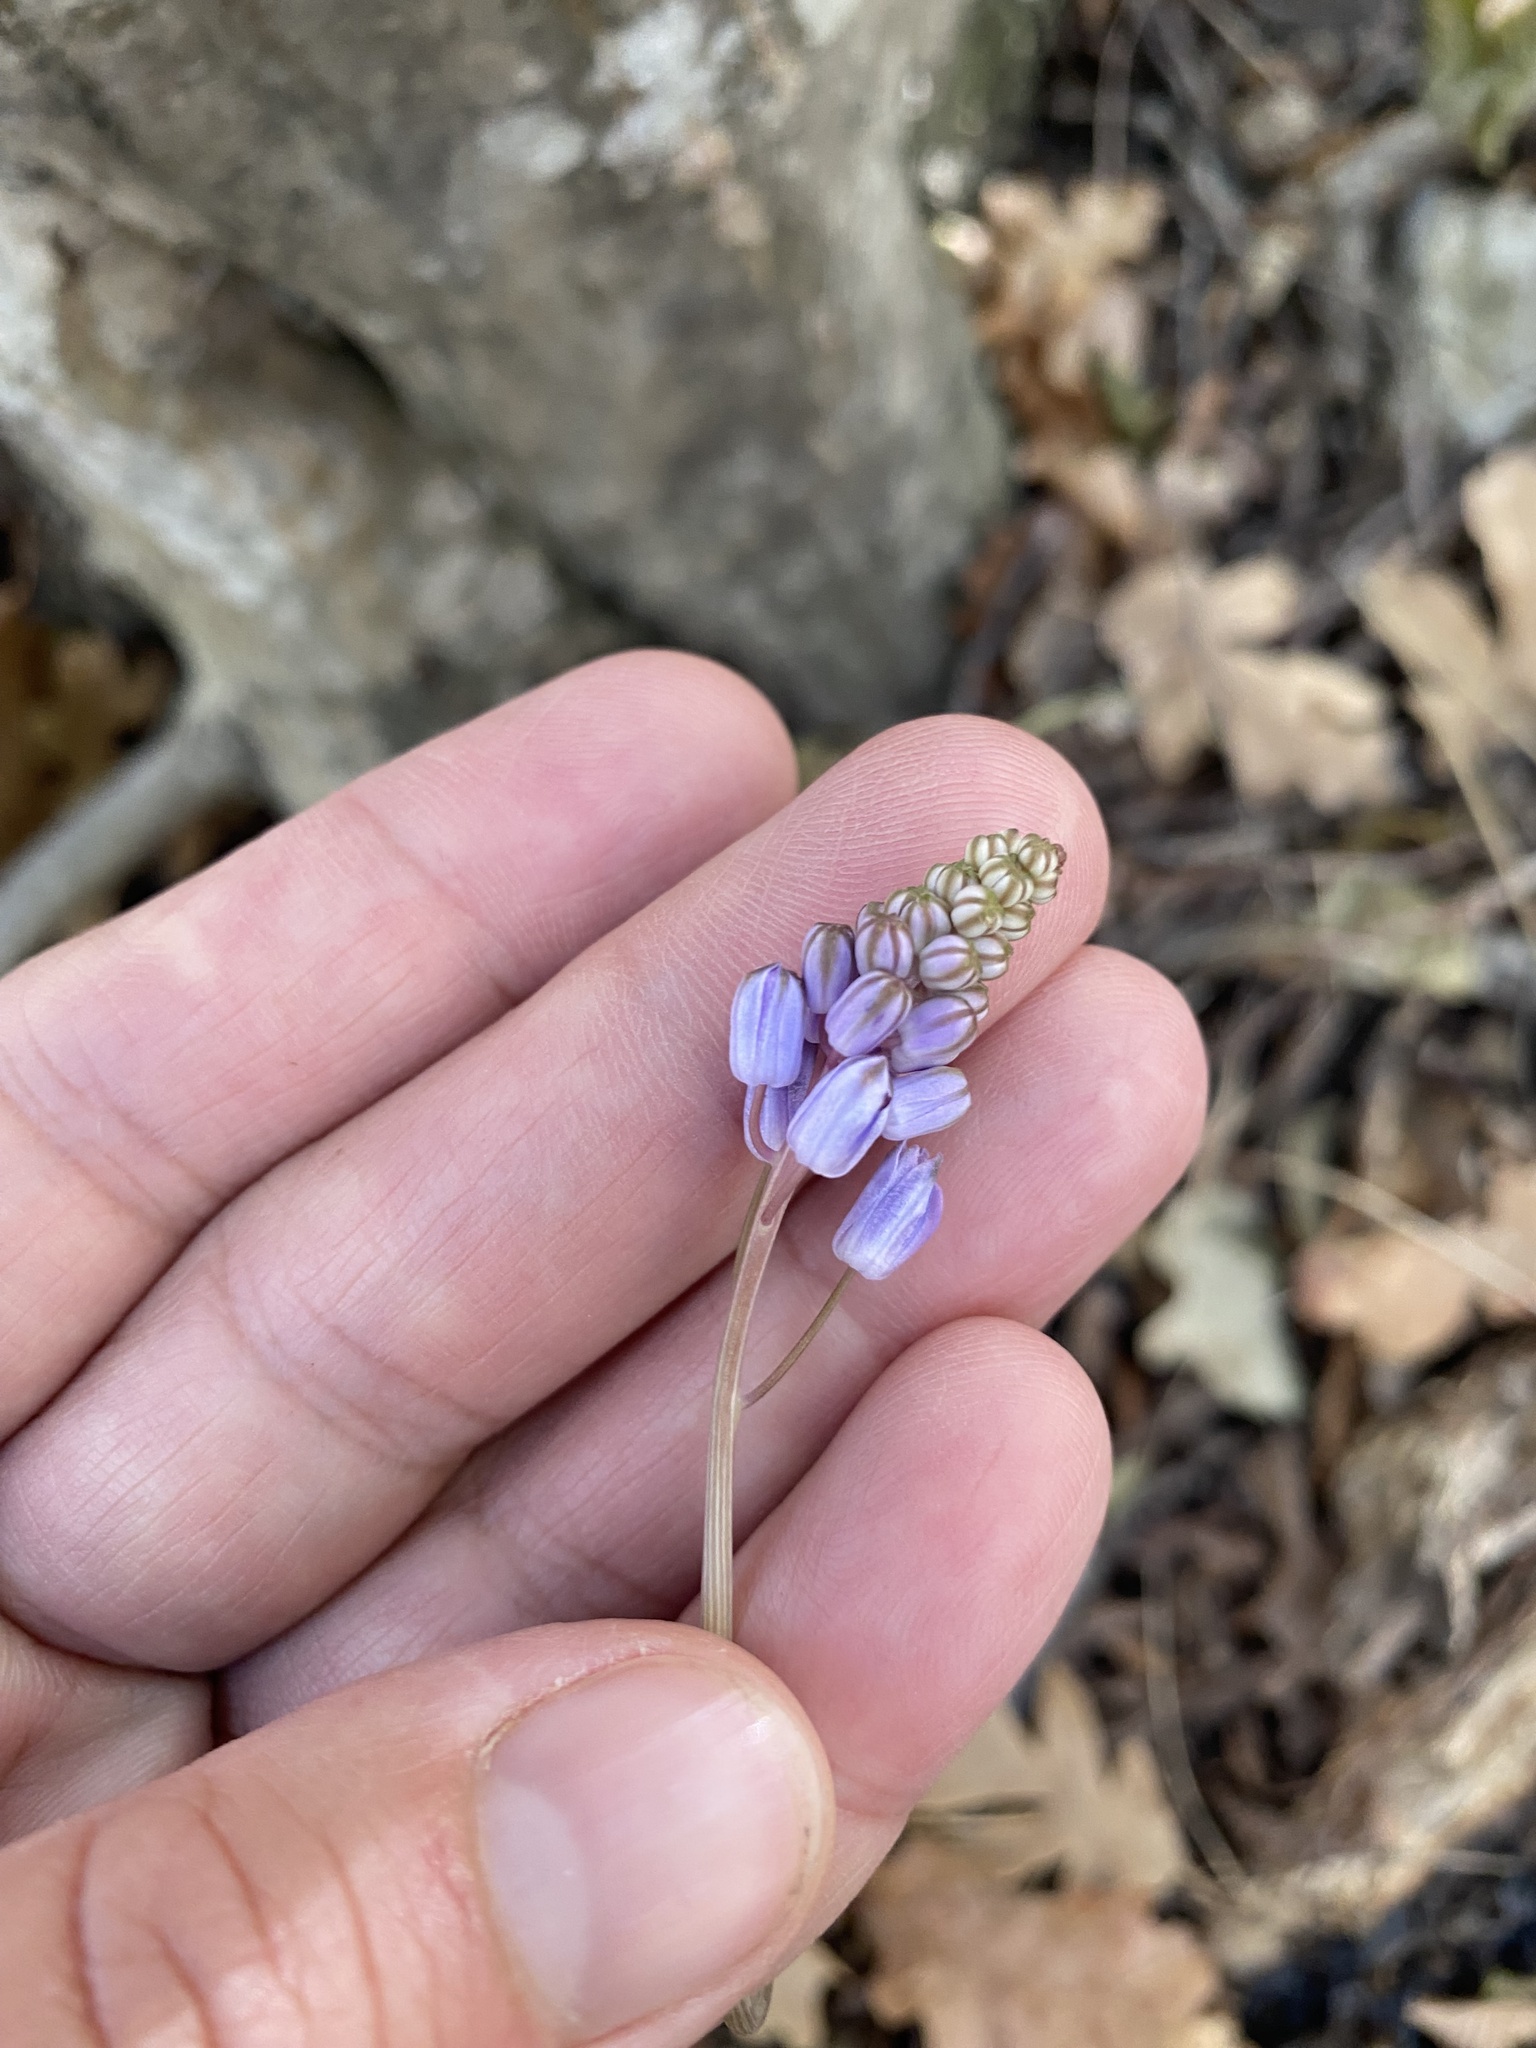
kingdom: Plantae
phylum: Tracheophyta
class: Liliopsida
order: Asparagales
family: Asparagaceae
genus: Prospero
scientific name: Prospero autumnale
